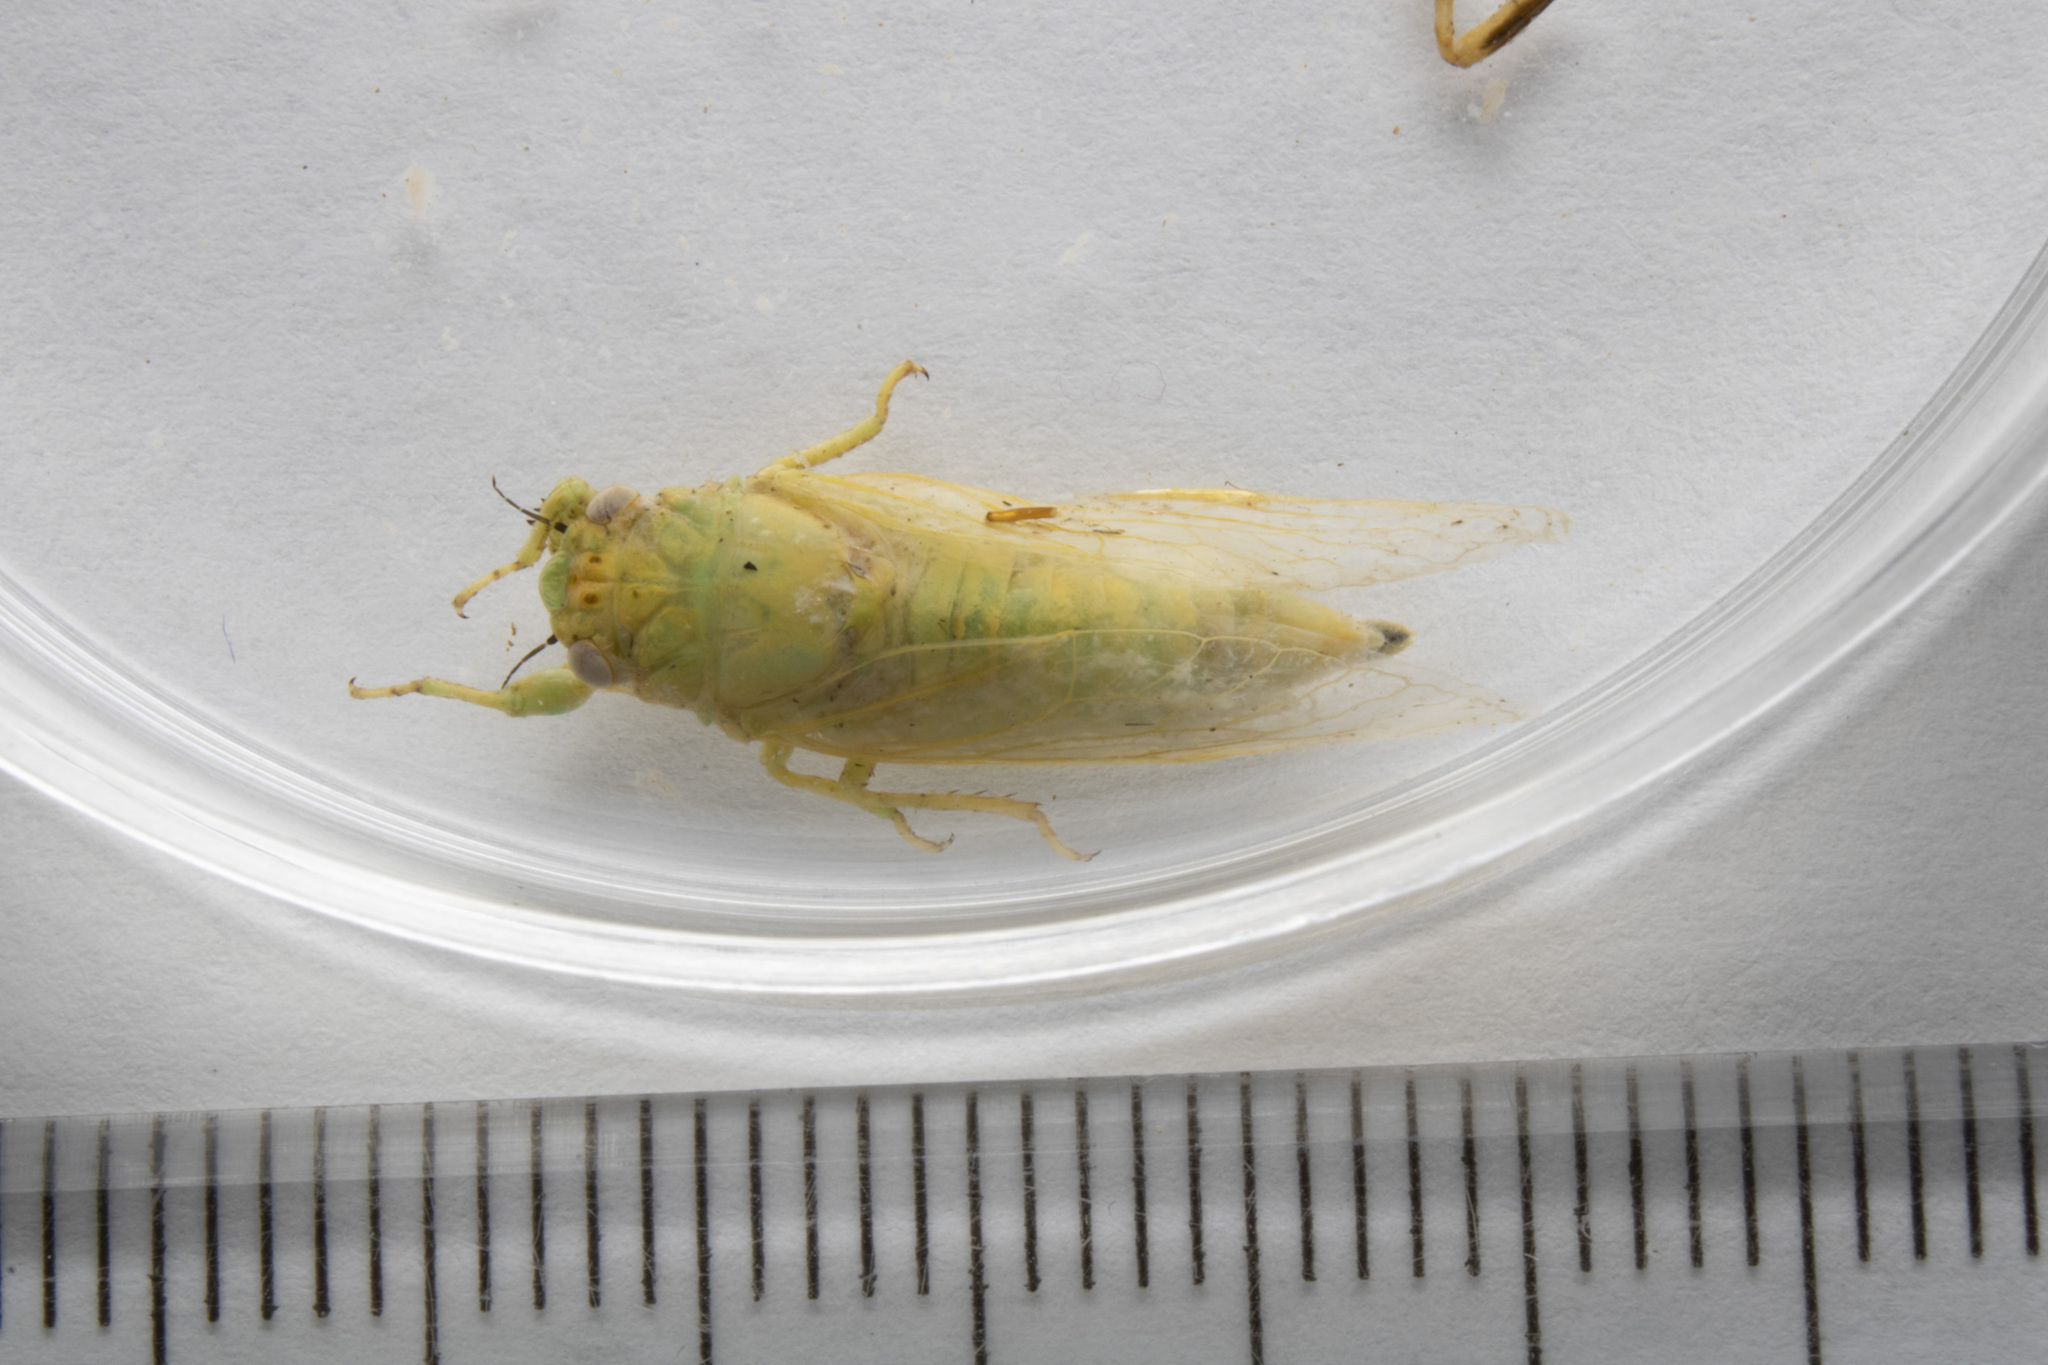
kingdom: Animalia
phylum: Arthropoda
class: Insecta
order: Hemiptera
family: Cicadidae
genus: Cicadettana
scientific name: Cicadettana kansa
